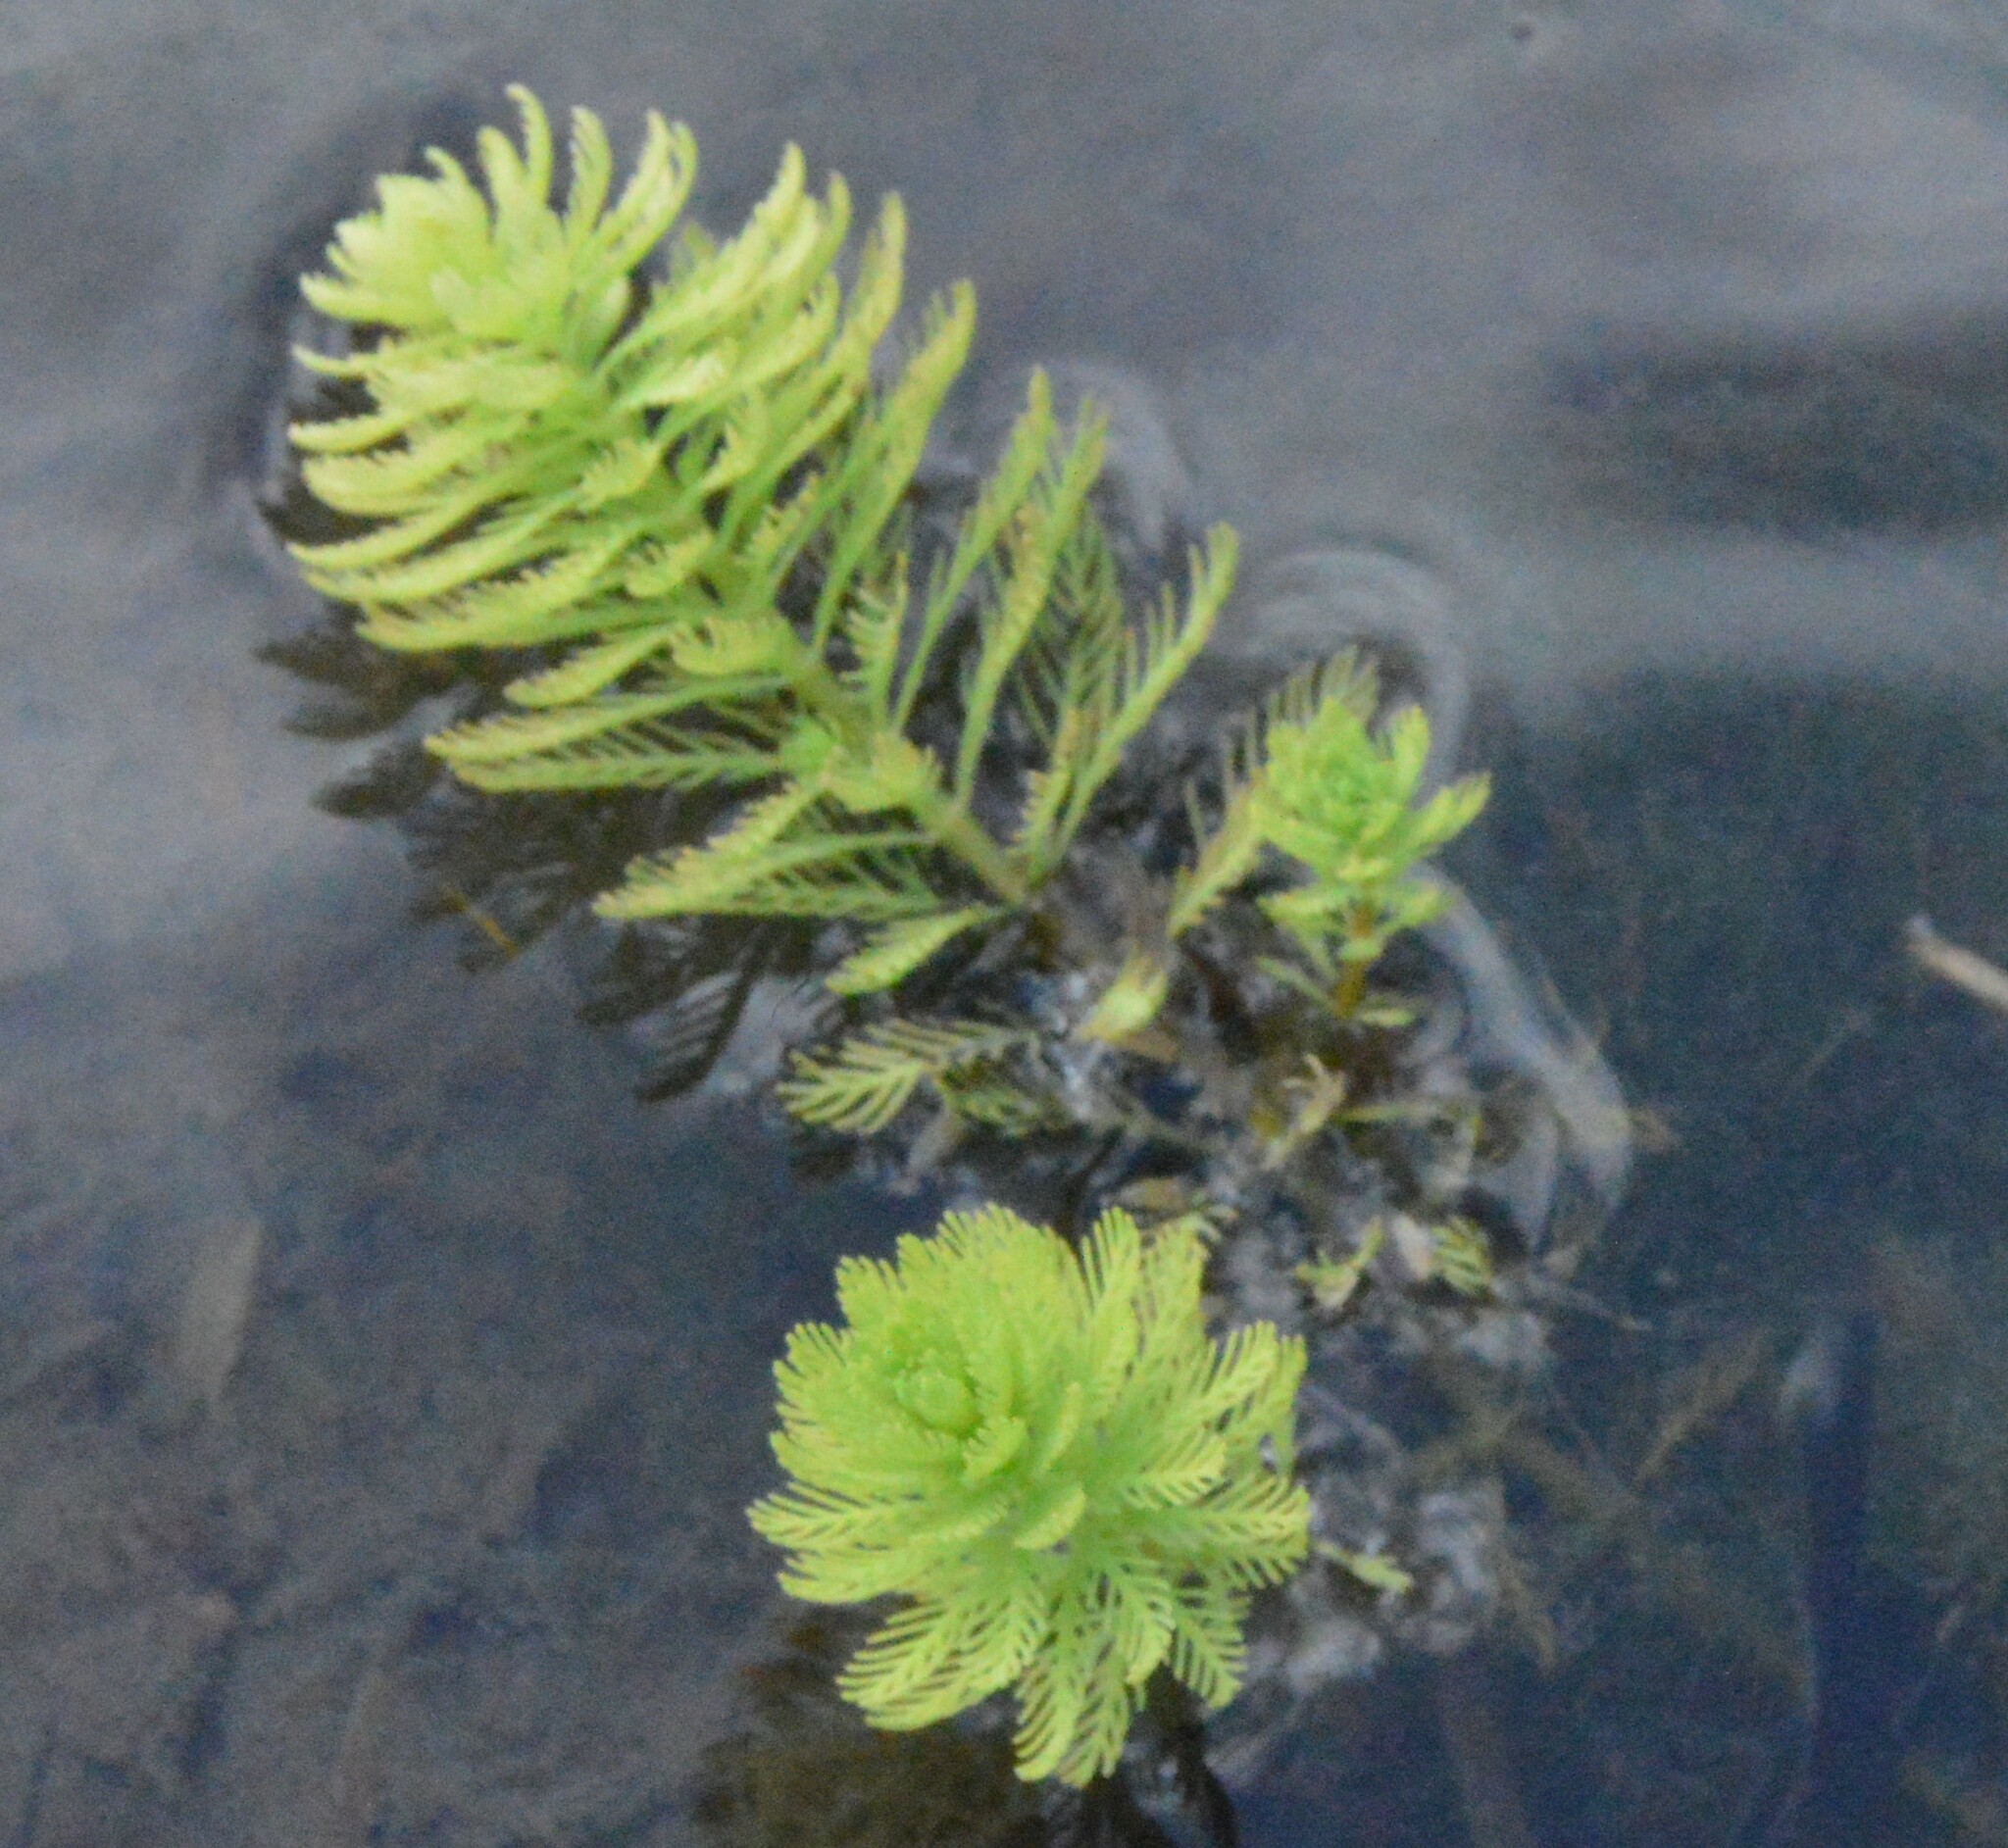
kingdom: Plantae
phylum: Tracheophyta
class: Magnoliopsida
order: Saxifragales
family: Haloragaceae
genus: Myriophyllum
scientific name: Myriophyllum aquaticum
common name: Parrot's feather
